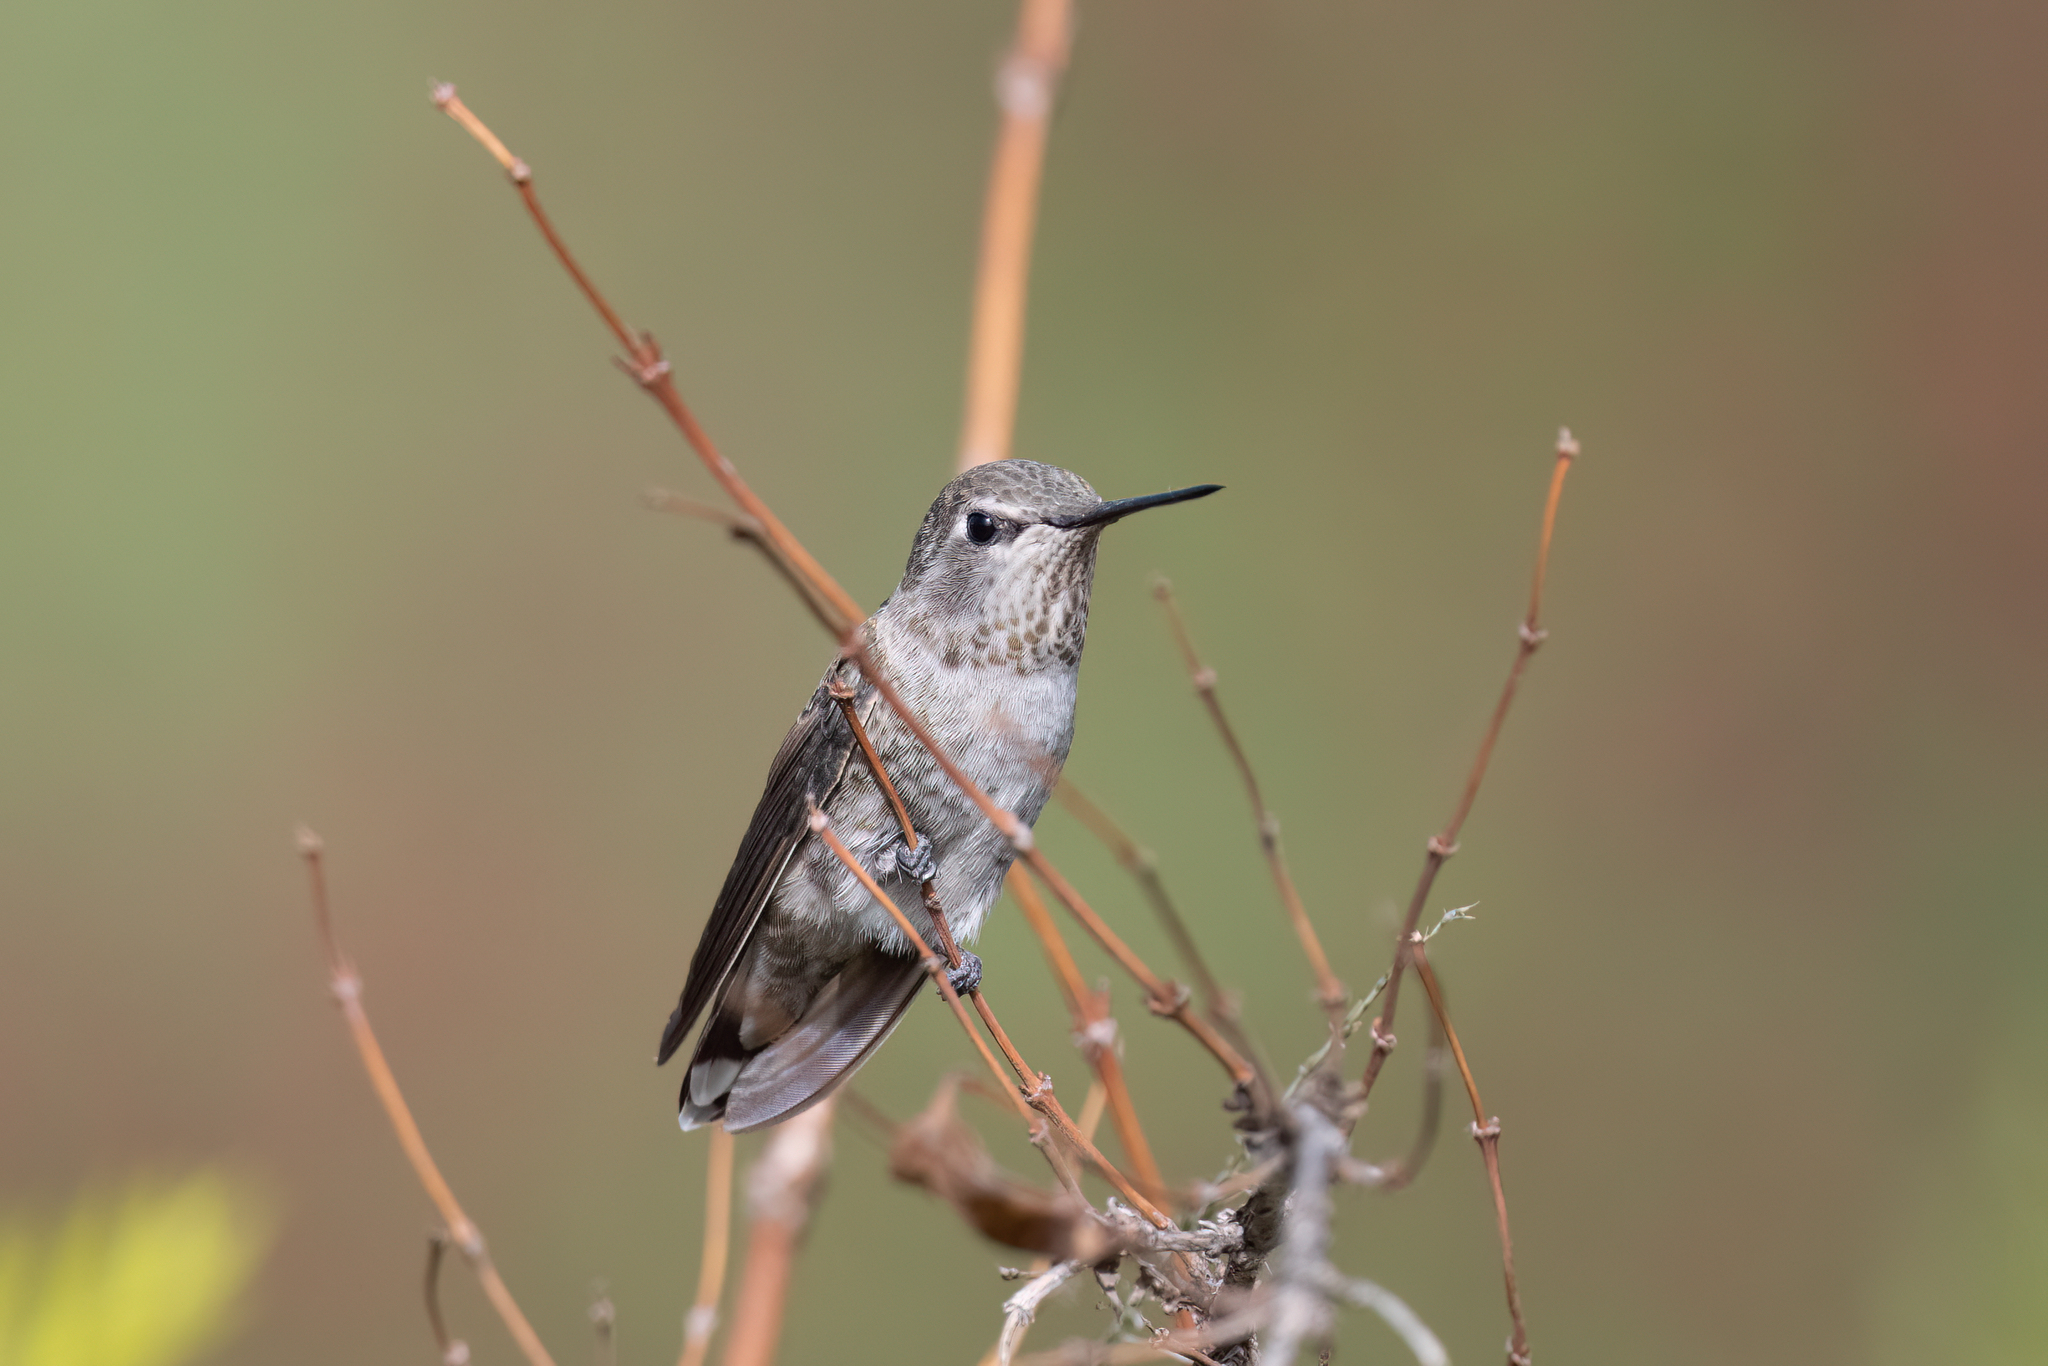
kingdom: Animalia
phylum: Chordata
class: Aves
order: Apodiformes
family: Trochilidae
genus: Calypte
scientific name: Calypte anna
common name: Anna's hummingbird
